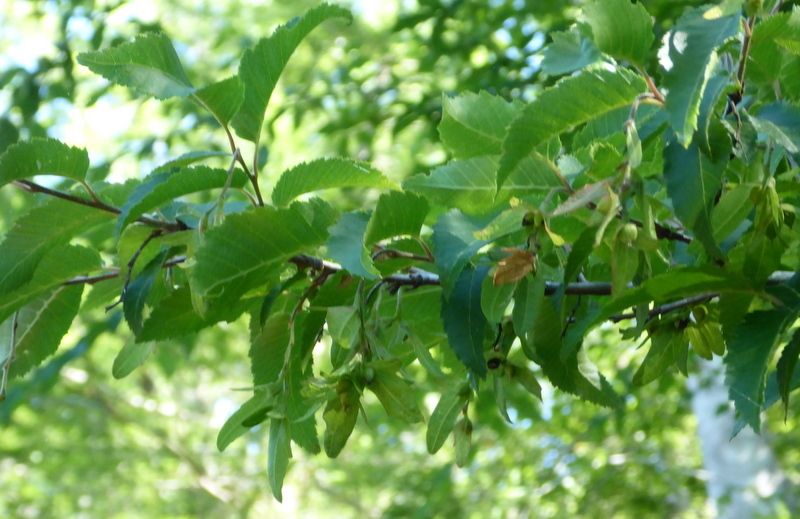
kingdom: Plantae
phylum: Tracheophyta
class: Magnoliopsida
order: Fagales
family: Betulaceae
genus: Carpinus
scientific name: Carpinus caroliniana
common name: American hornbeam
